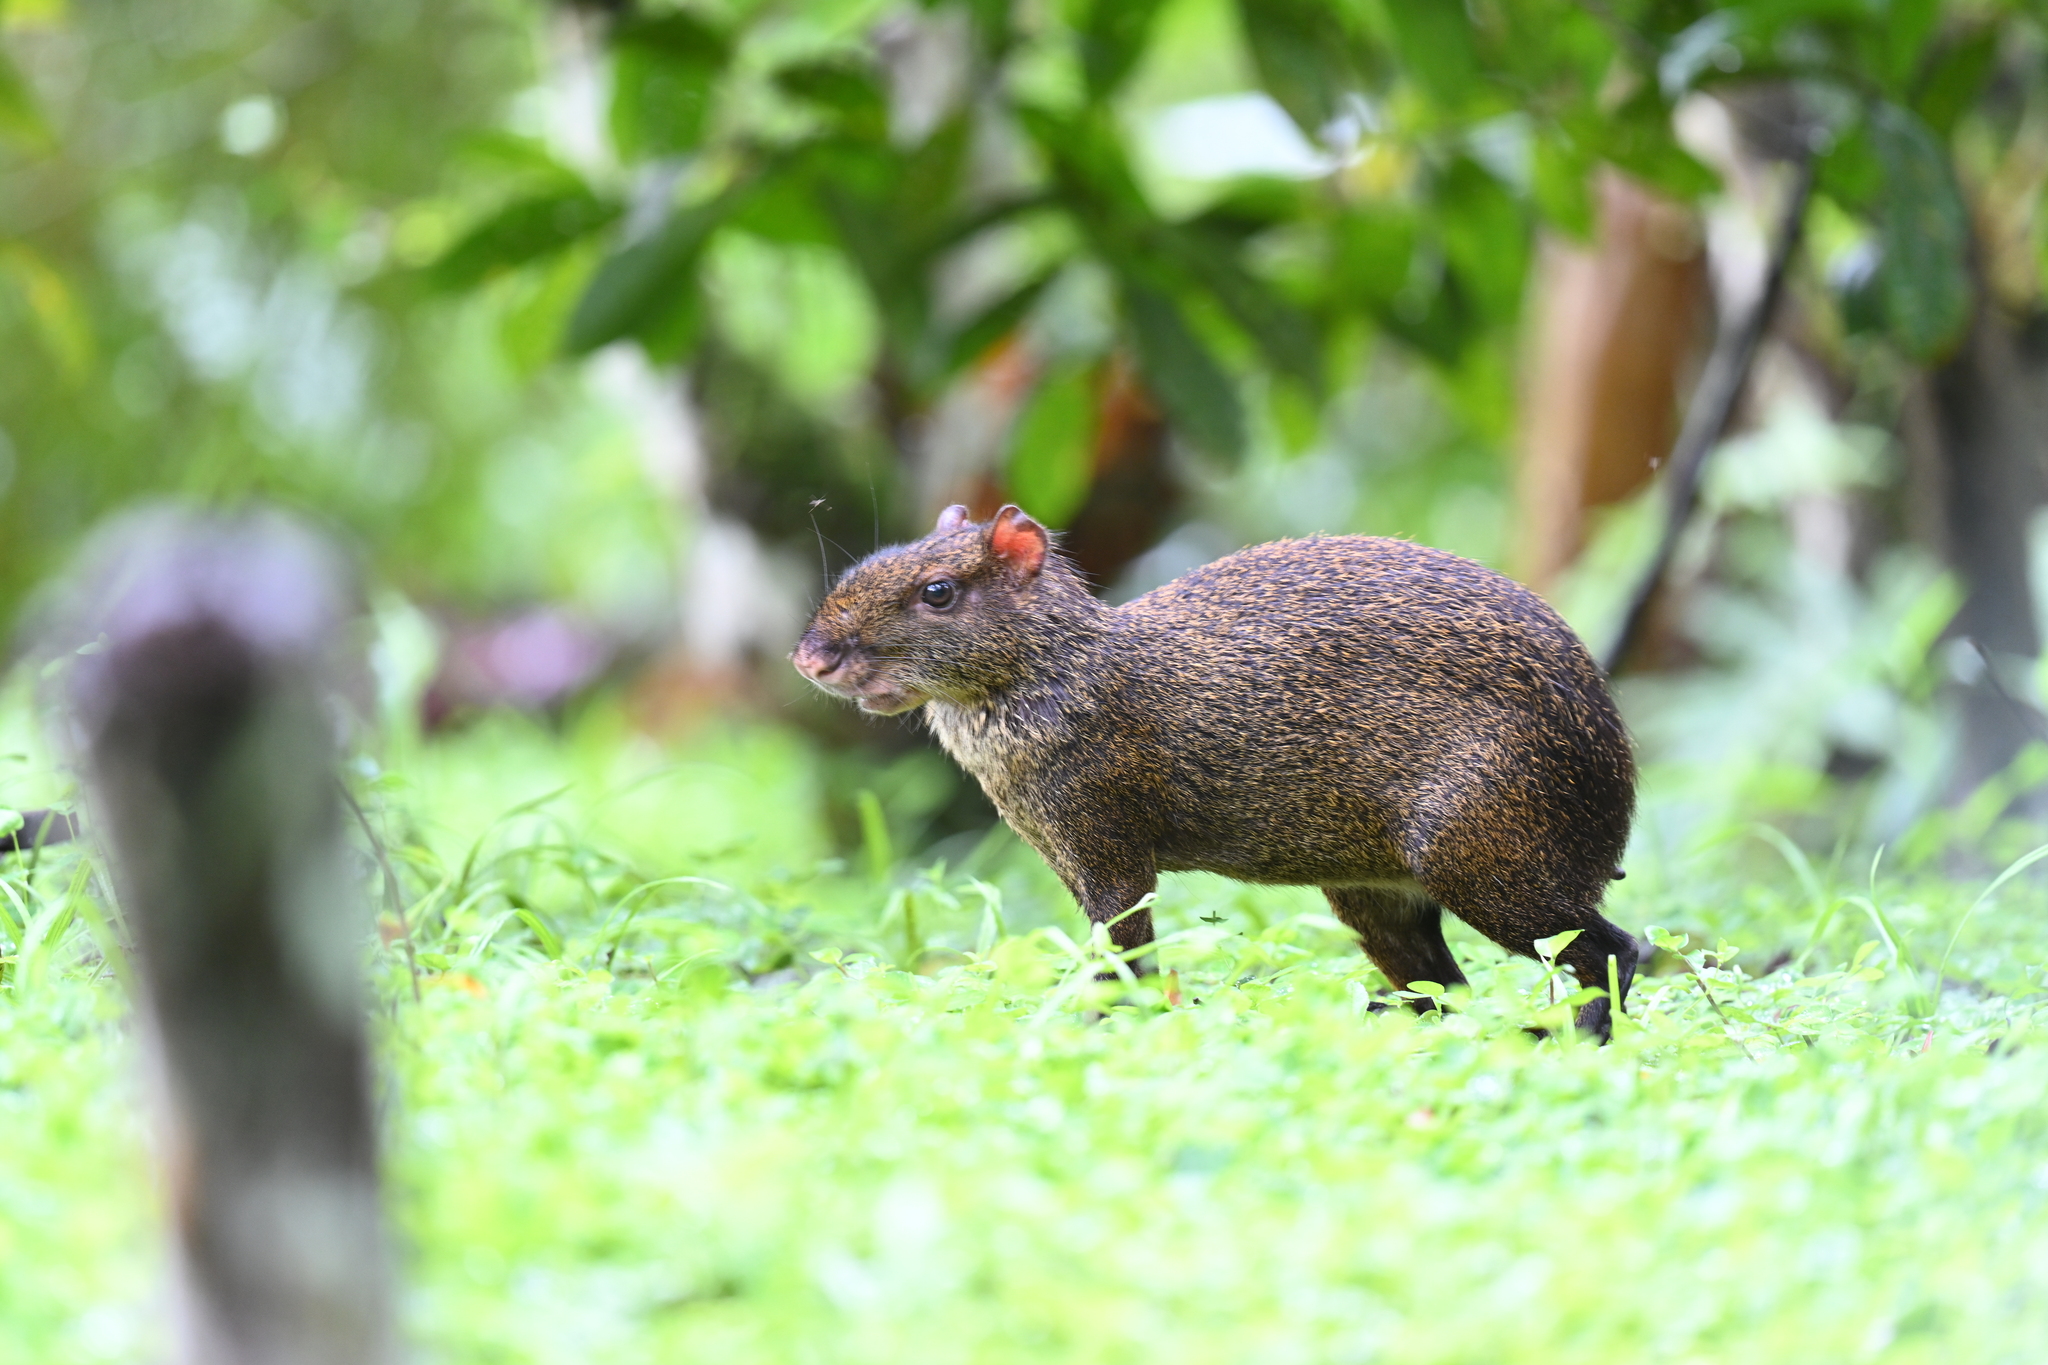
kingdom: Animalia
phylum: Chordata
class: Mammalia
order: Rodentia
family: Dasyproctidae
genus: Dasyprocta
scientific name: Dasyprocta punctata
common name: Central american agouti
